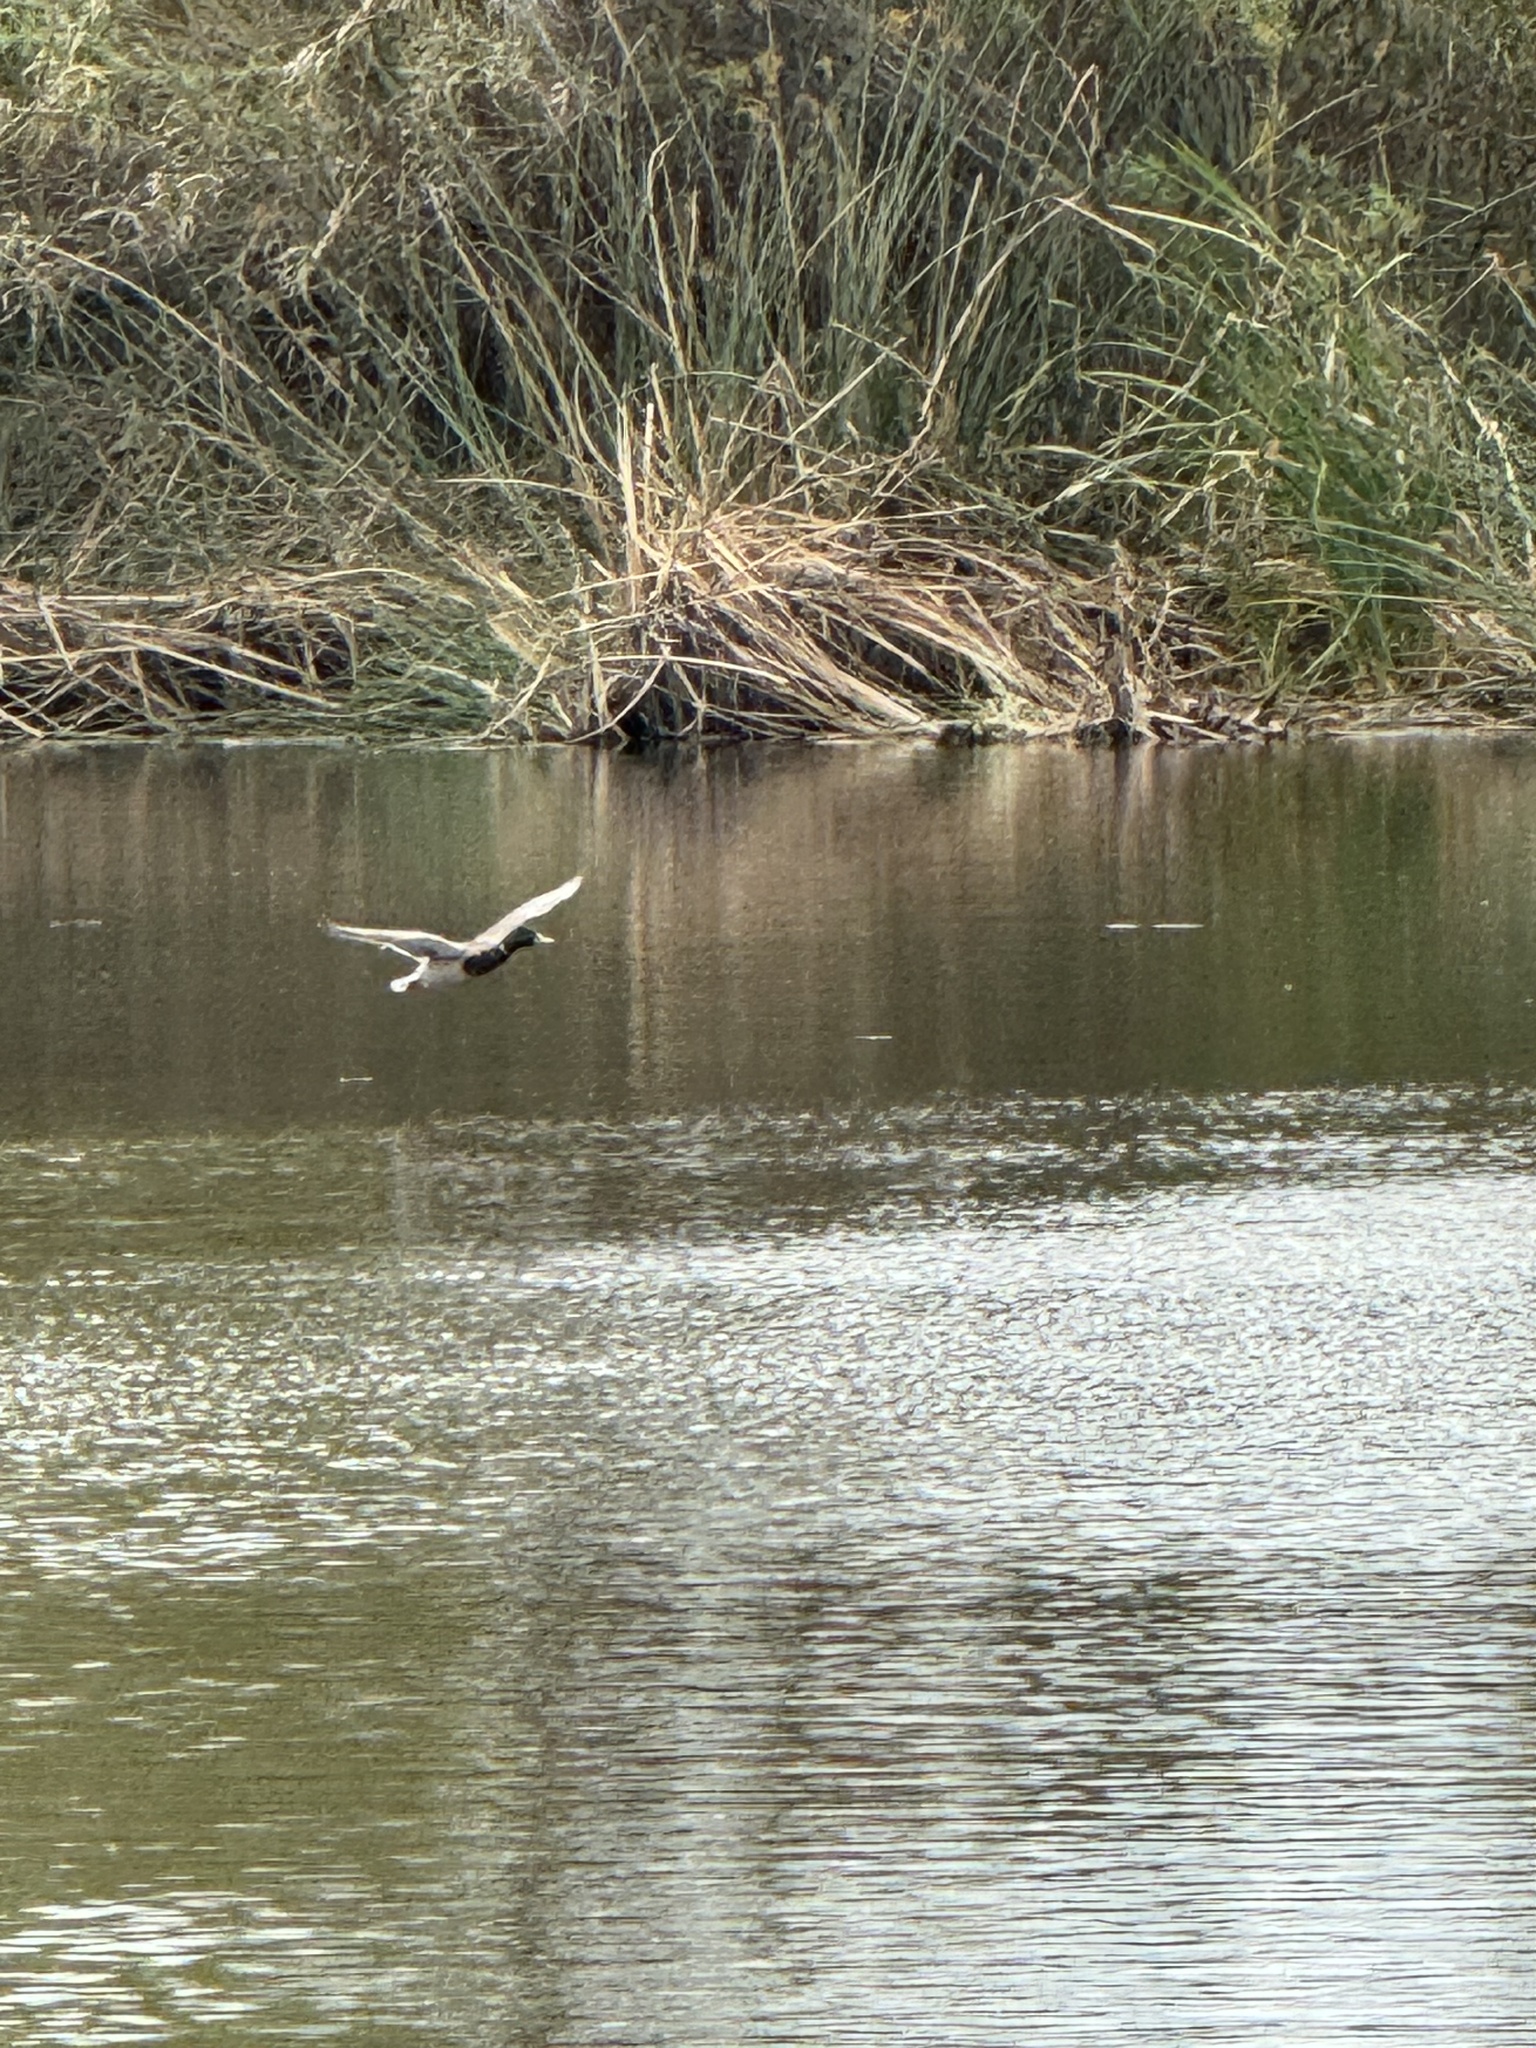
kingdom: Animalia
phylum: Chordata
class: Aves
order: Anseriformes
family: Anatidae
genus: Anas
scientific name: Anas platyrhynchos
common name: Mallard
